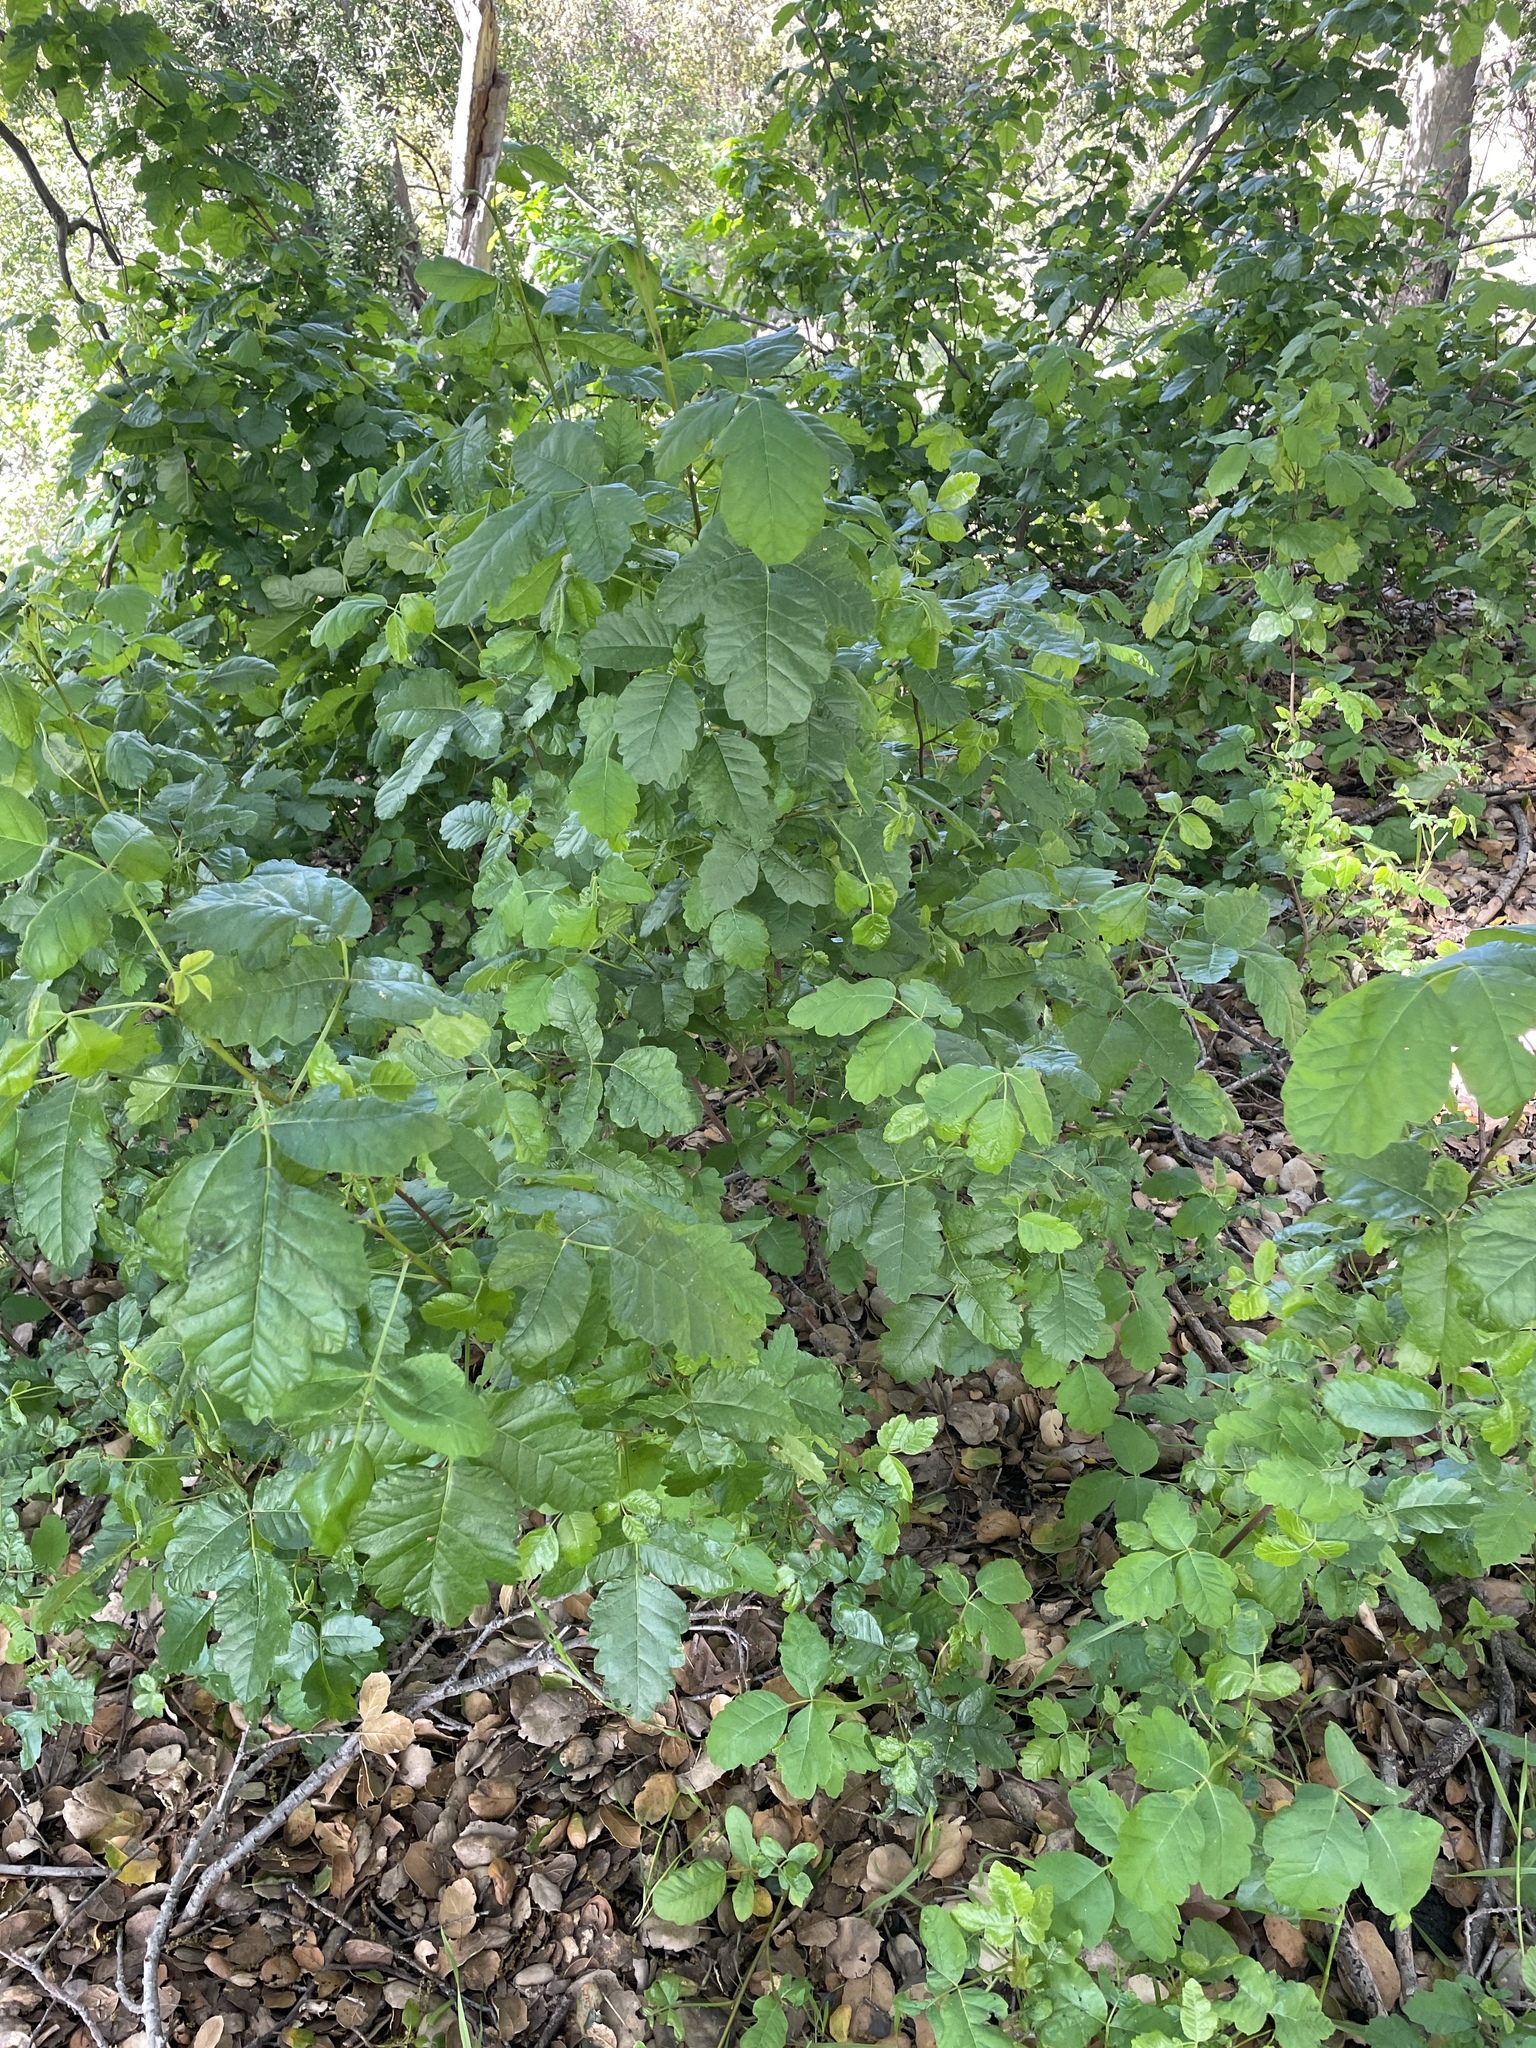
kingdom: Plantae
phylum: Tracheophyta
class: Magnoliopsida
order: Sapindales
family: Anacardiaceae
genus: Toxicodendron
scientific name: Toxicodendron diversilobum
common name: Pacific poison-oak
